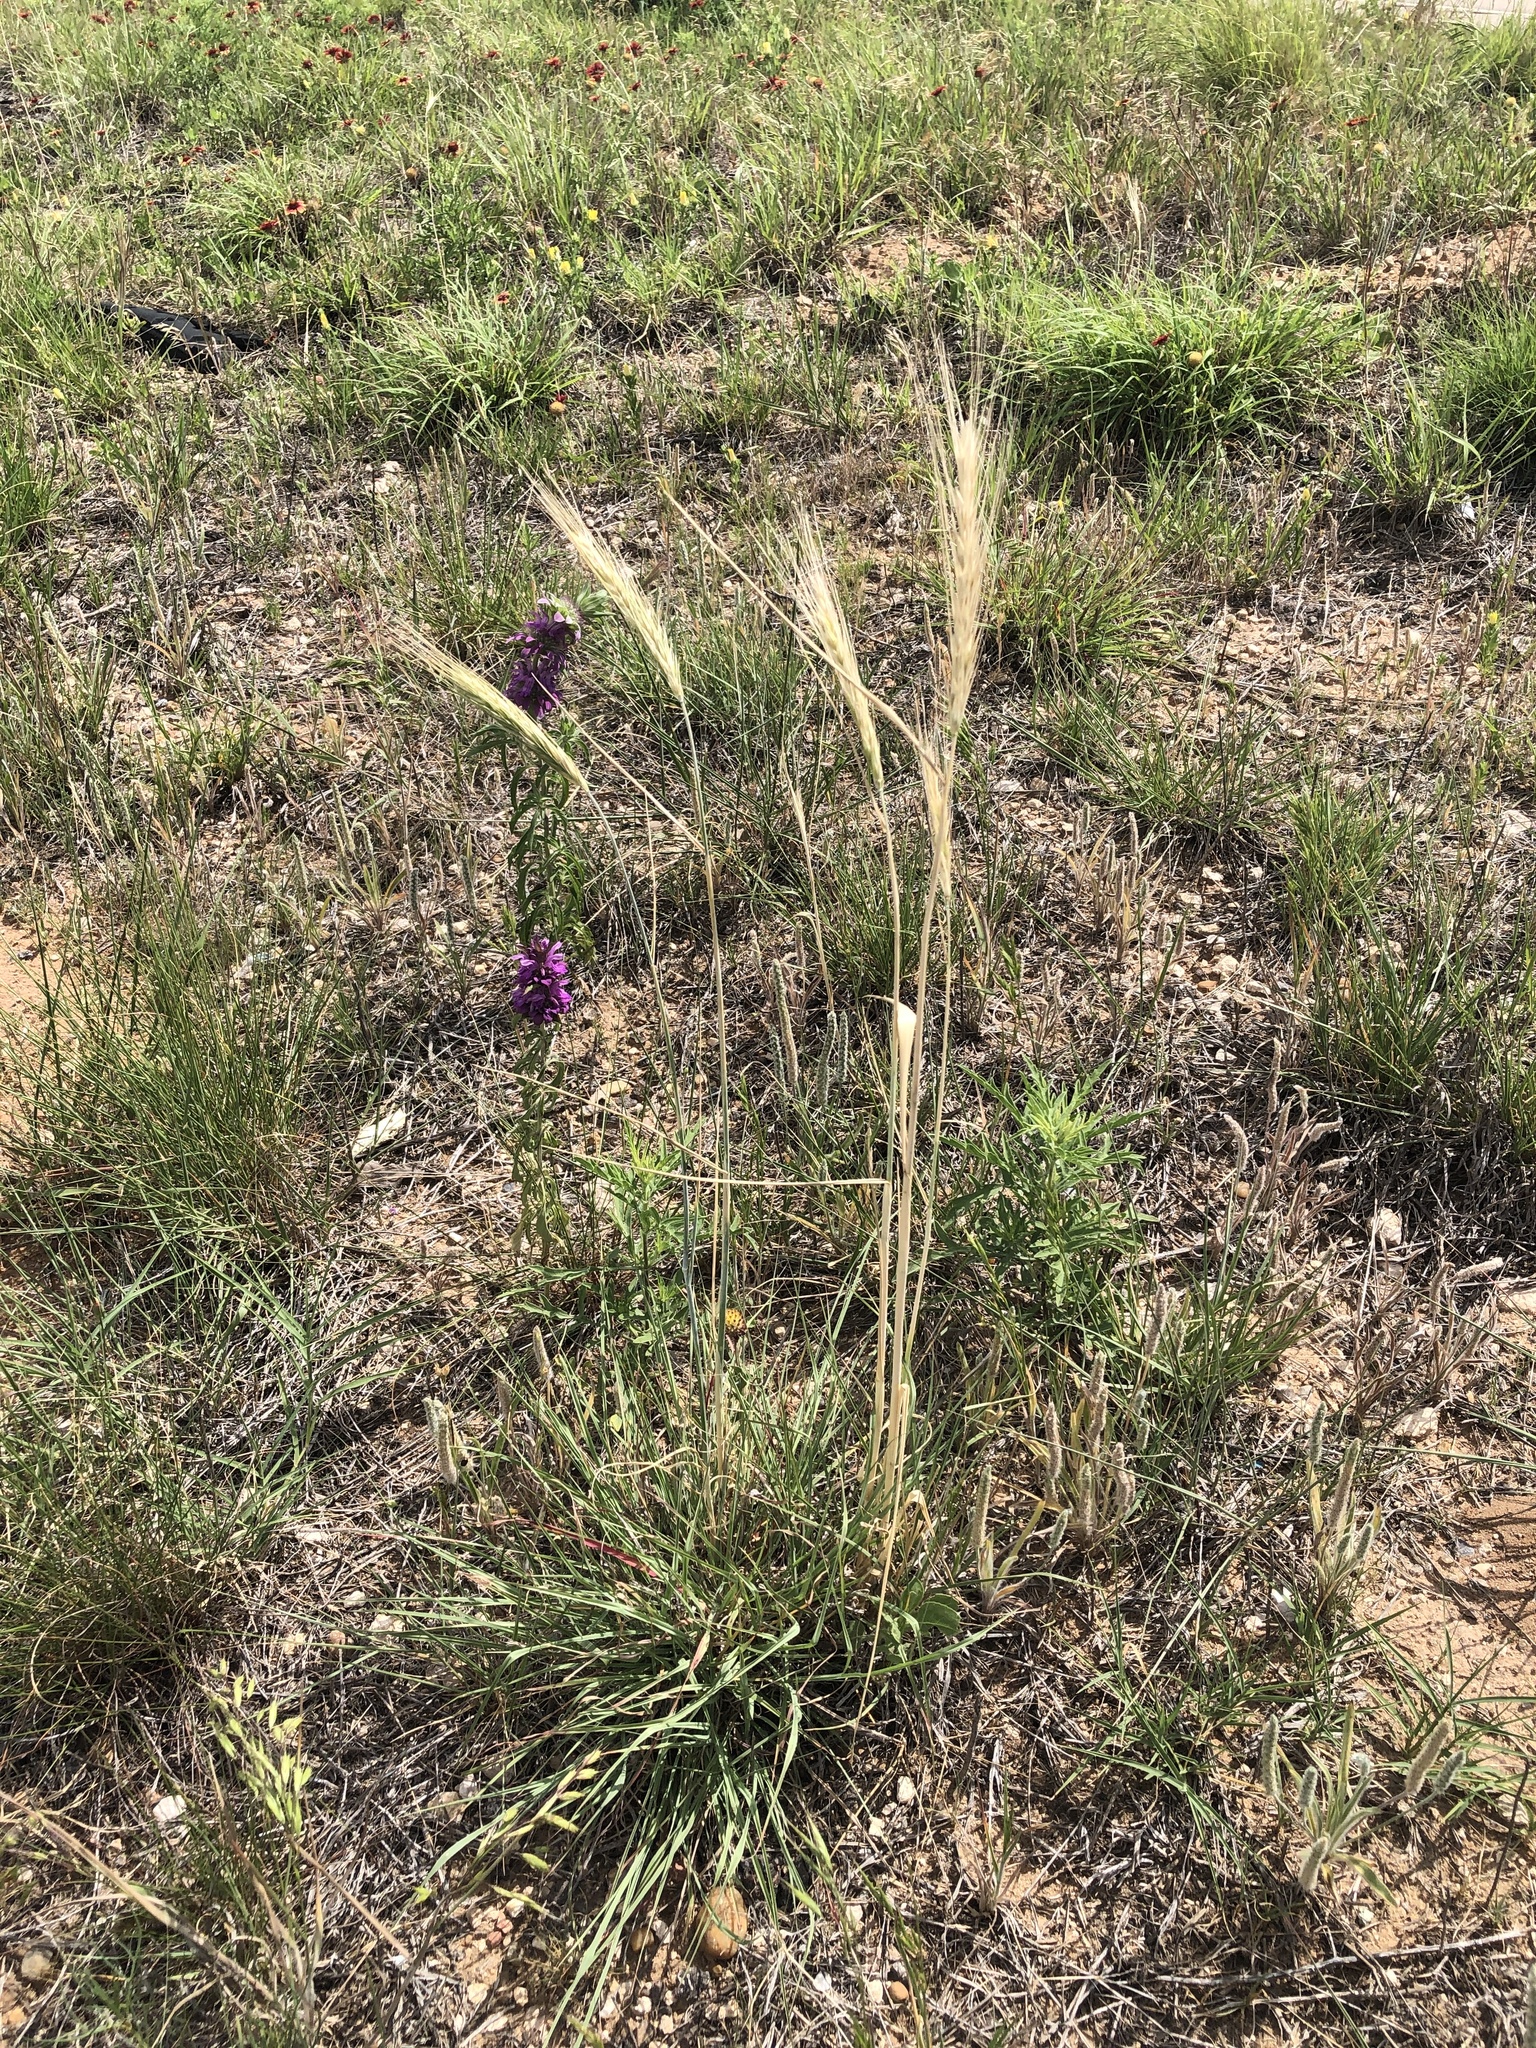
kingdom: Plantae
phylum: Tracheophyta
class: Liliopsida
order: Poales
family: Poaceae
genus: Secale
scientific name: Secale cereale
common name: Rye
